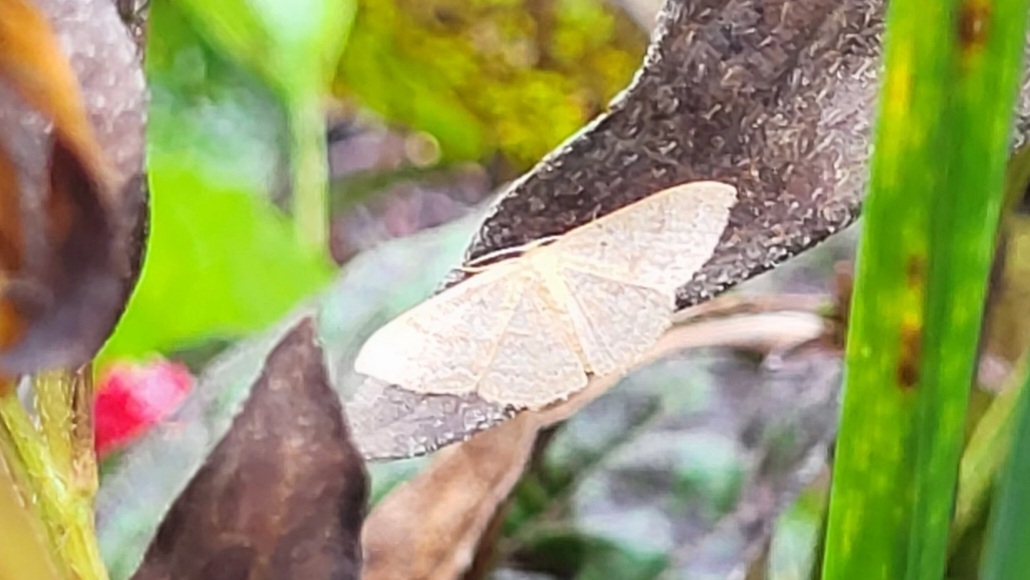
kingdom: Animalia
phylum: Arthropoda
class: Insecta
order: Lepidoptera
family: Geometridae
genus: Pleuroprucha
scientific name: Pleuroprucha insulsaria
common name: Common tan wave
